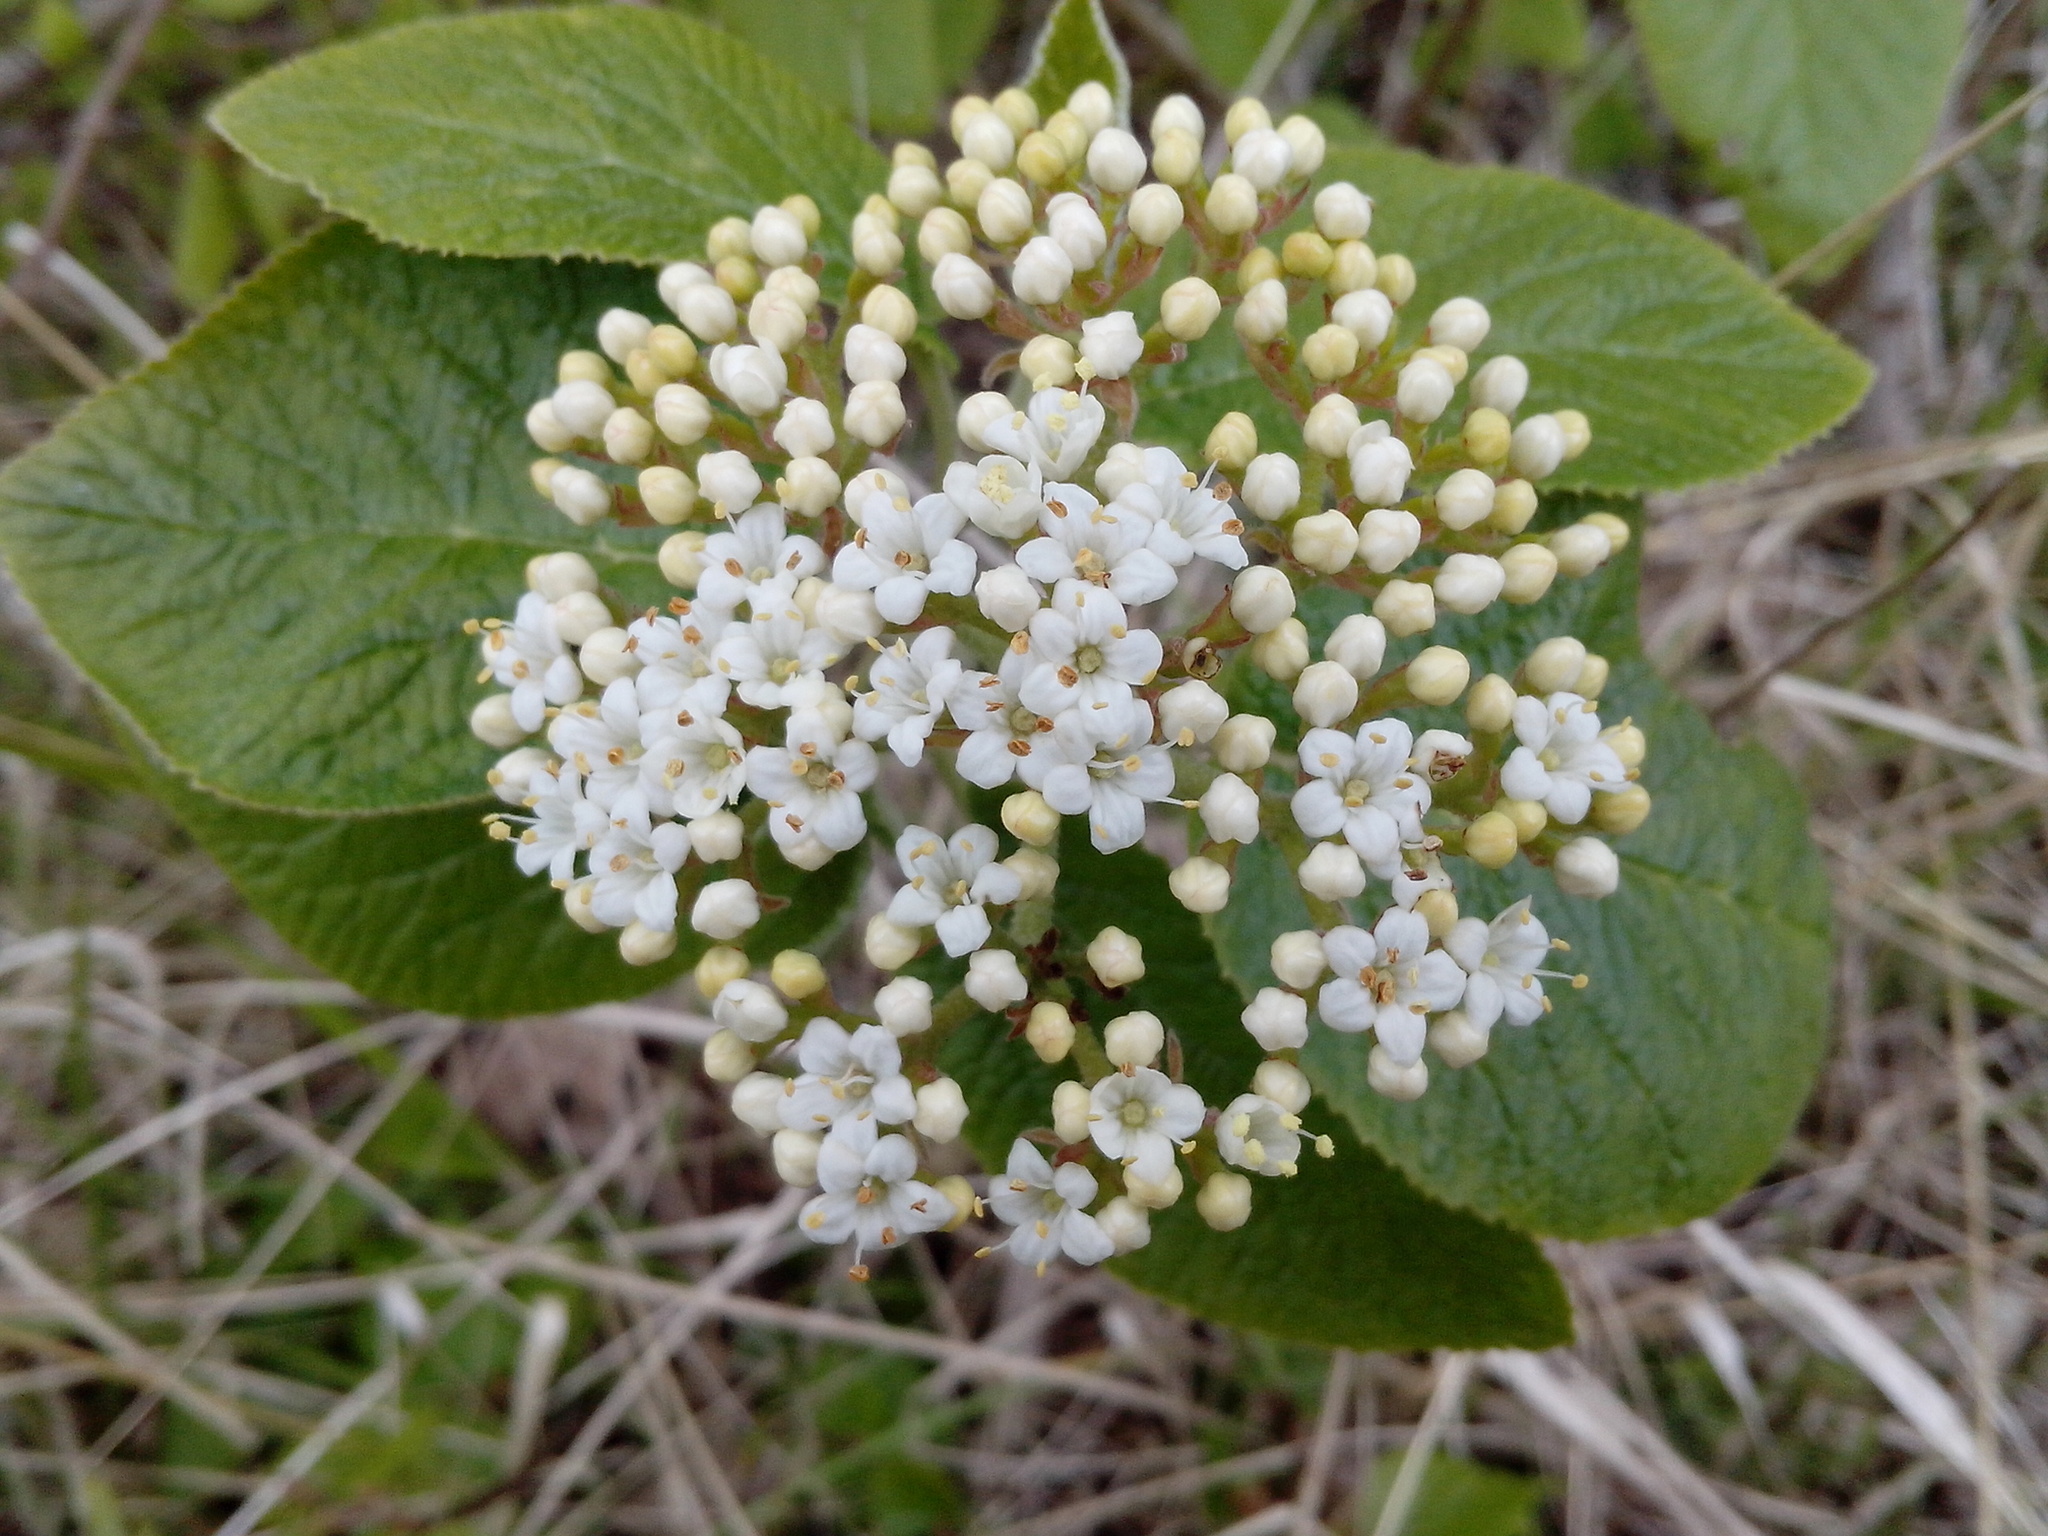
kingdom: Plantae
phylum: Tracheophyta
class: Magnoliopsida
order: Dipsacales
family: Viburnaceae
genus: Viburnum
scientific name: Viburnum lantana
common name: Wayfaring tree
